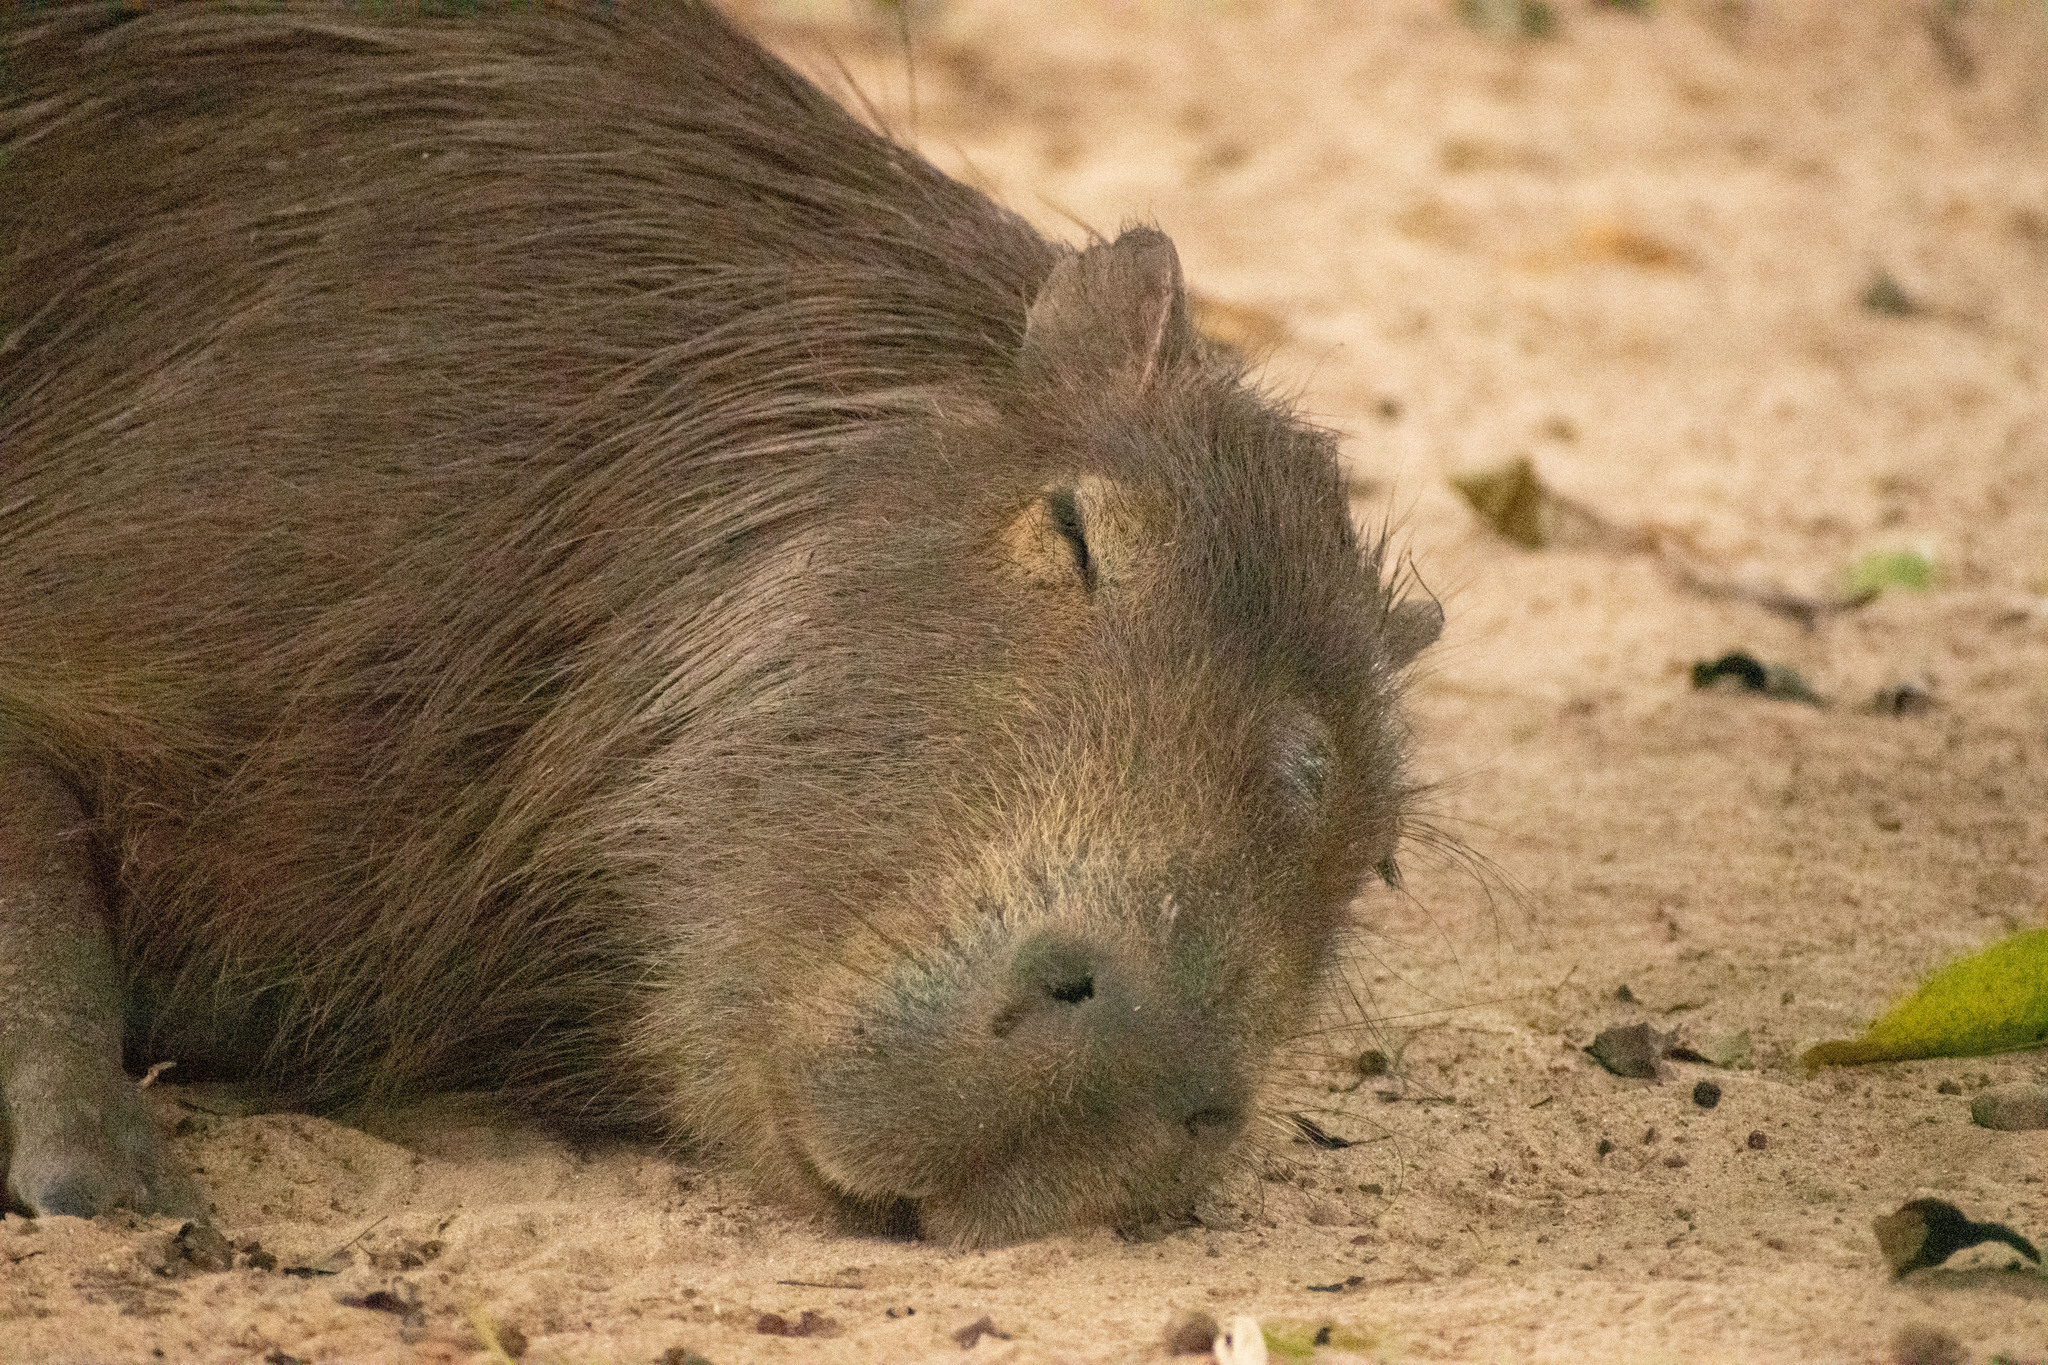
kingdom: Animalia
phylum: Chordata
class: Mammalia
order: Rodentia
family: Caviidae
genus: Hydrochoerus
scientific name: Hydrochoerus hydrochaeris
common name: Capybara
